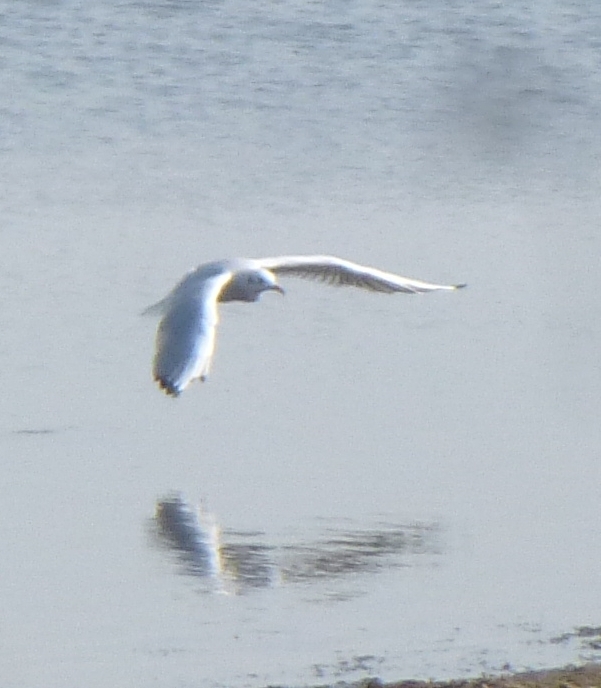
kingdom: Animalia
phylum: Chordata
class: Aves
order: Charadriiformes
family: Laridae
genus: Chroicocephalus
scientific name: Chroicocephalus ridibundus
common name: Black-headed gull
